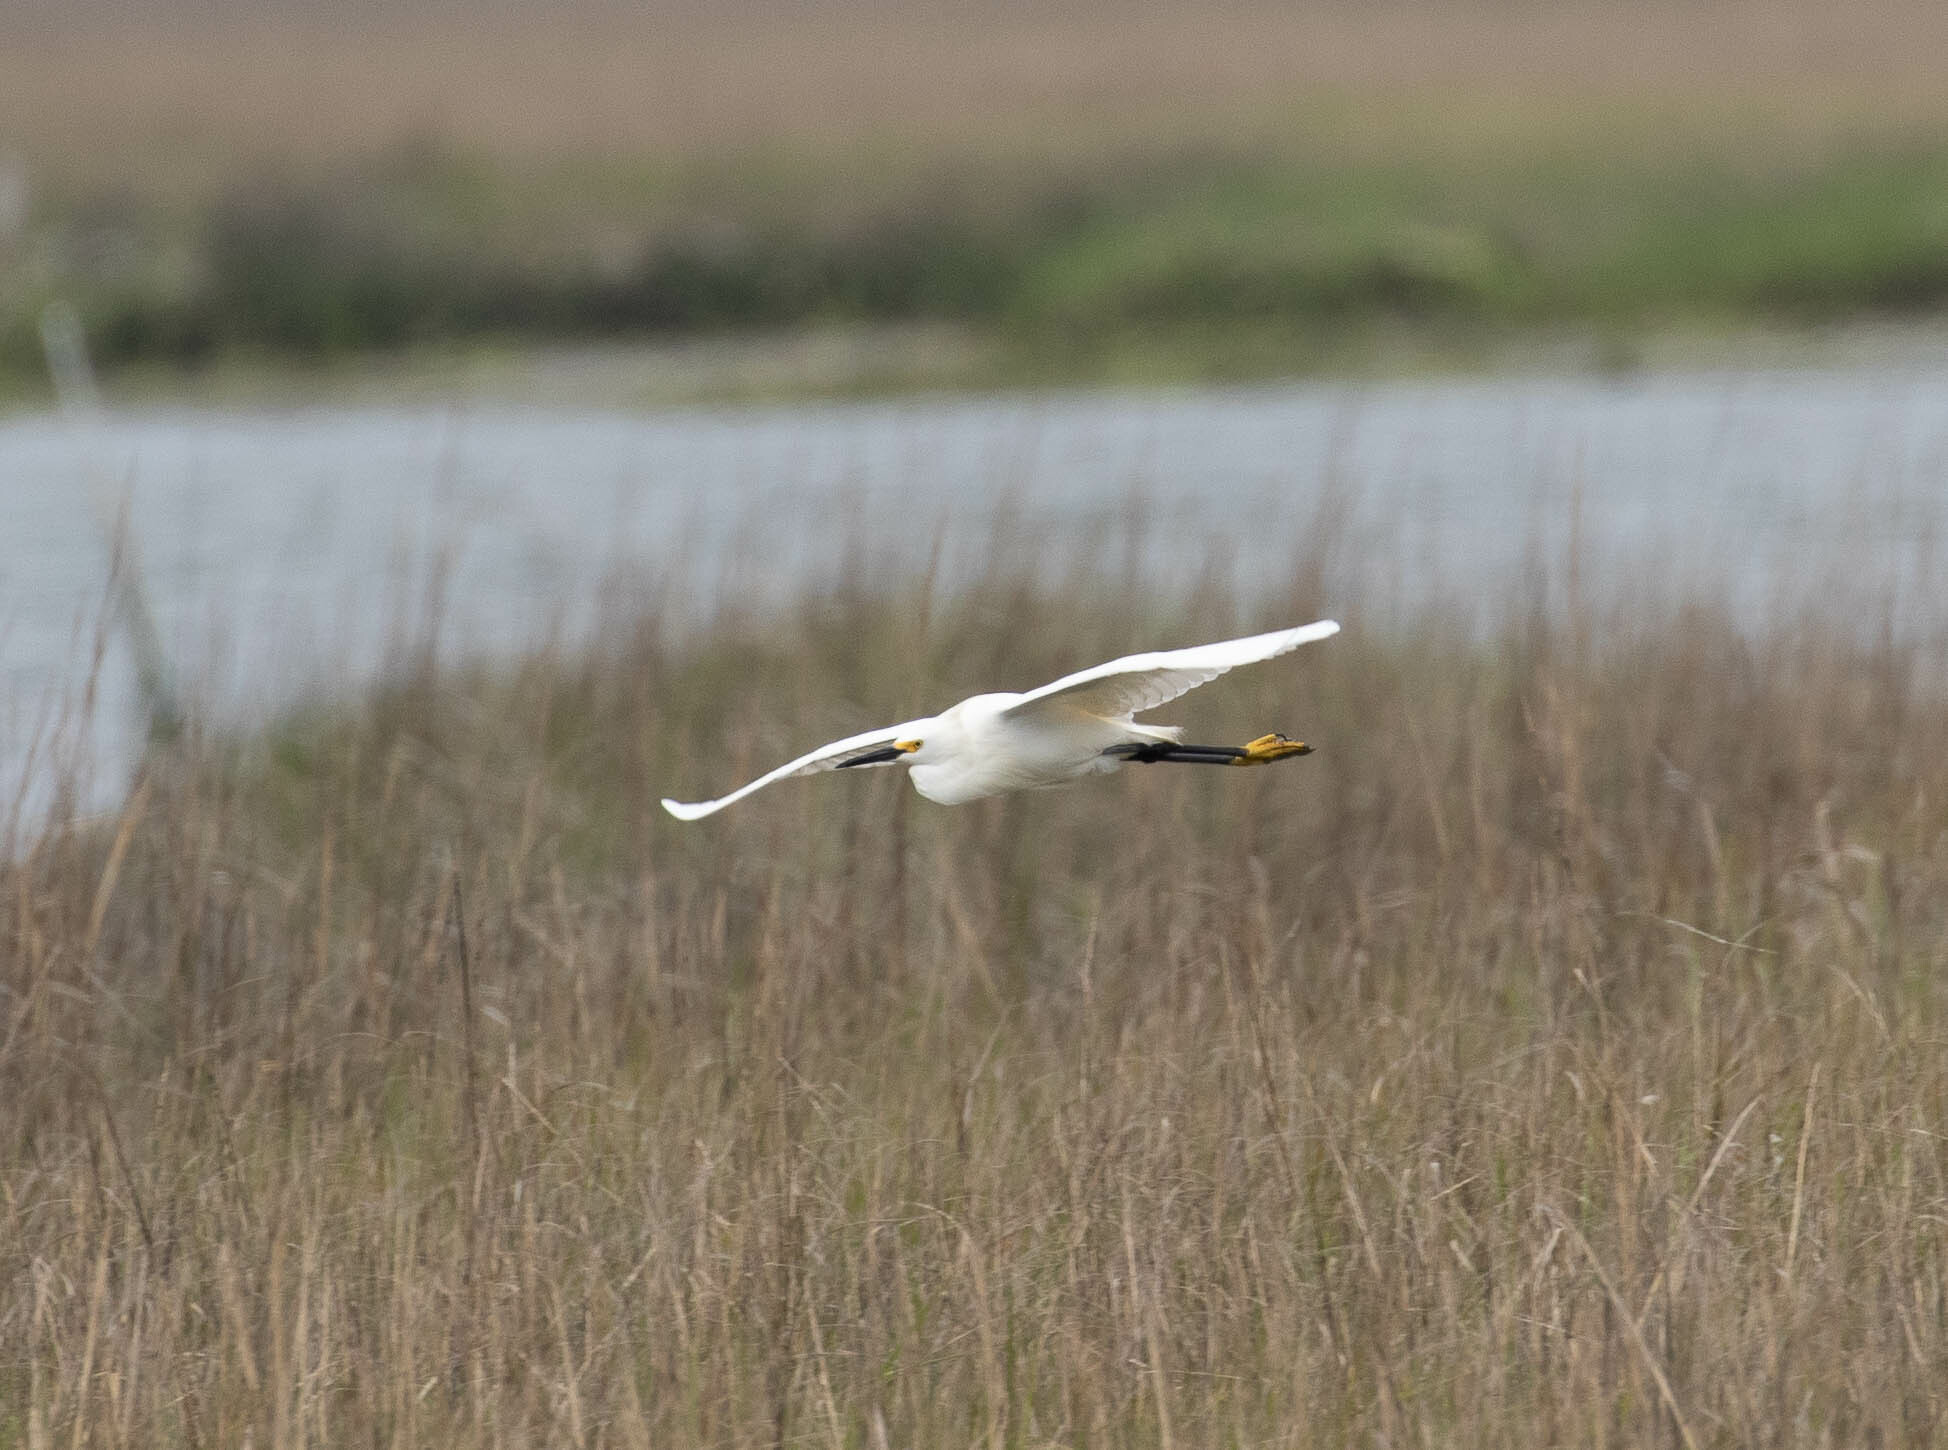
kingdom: Animalia
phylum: Chordata
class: Aves
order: Pelecaniformes
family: Ardeidae
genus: Egretta
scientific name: Egretta thula
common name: Snowy egret
